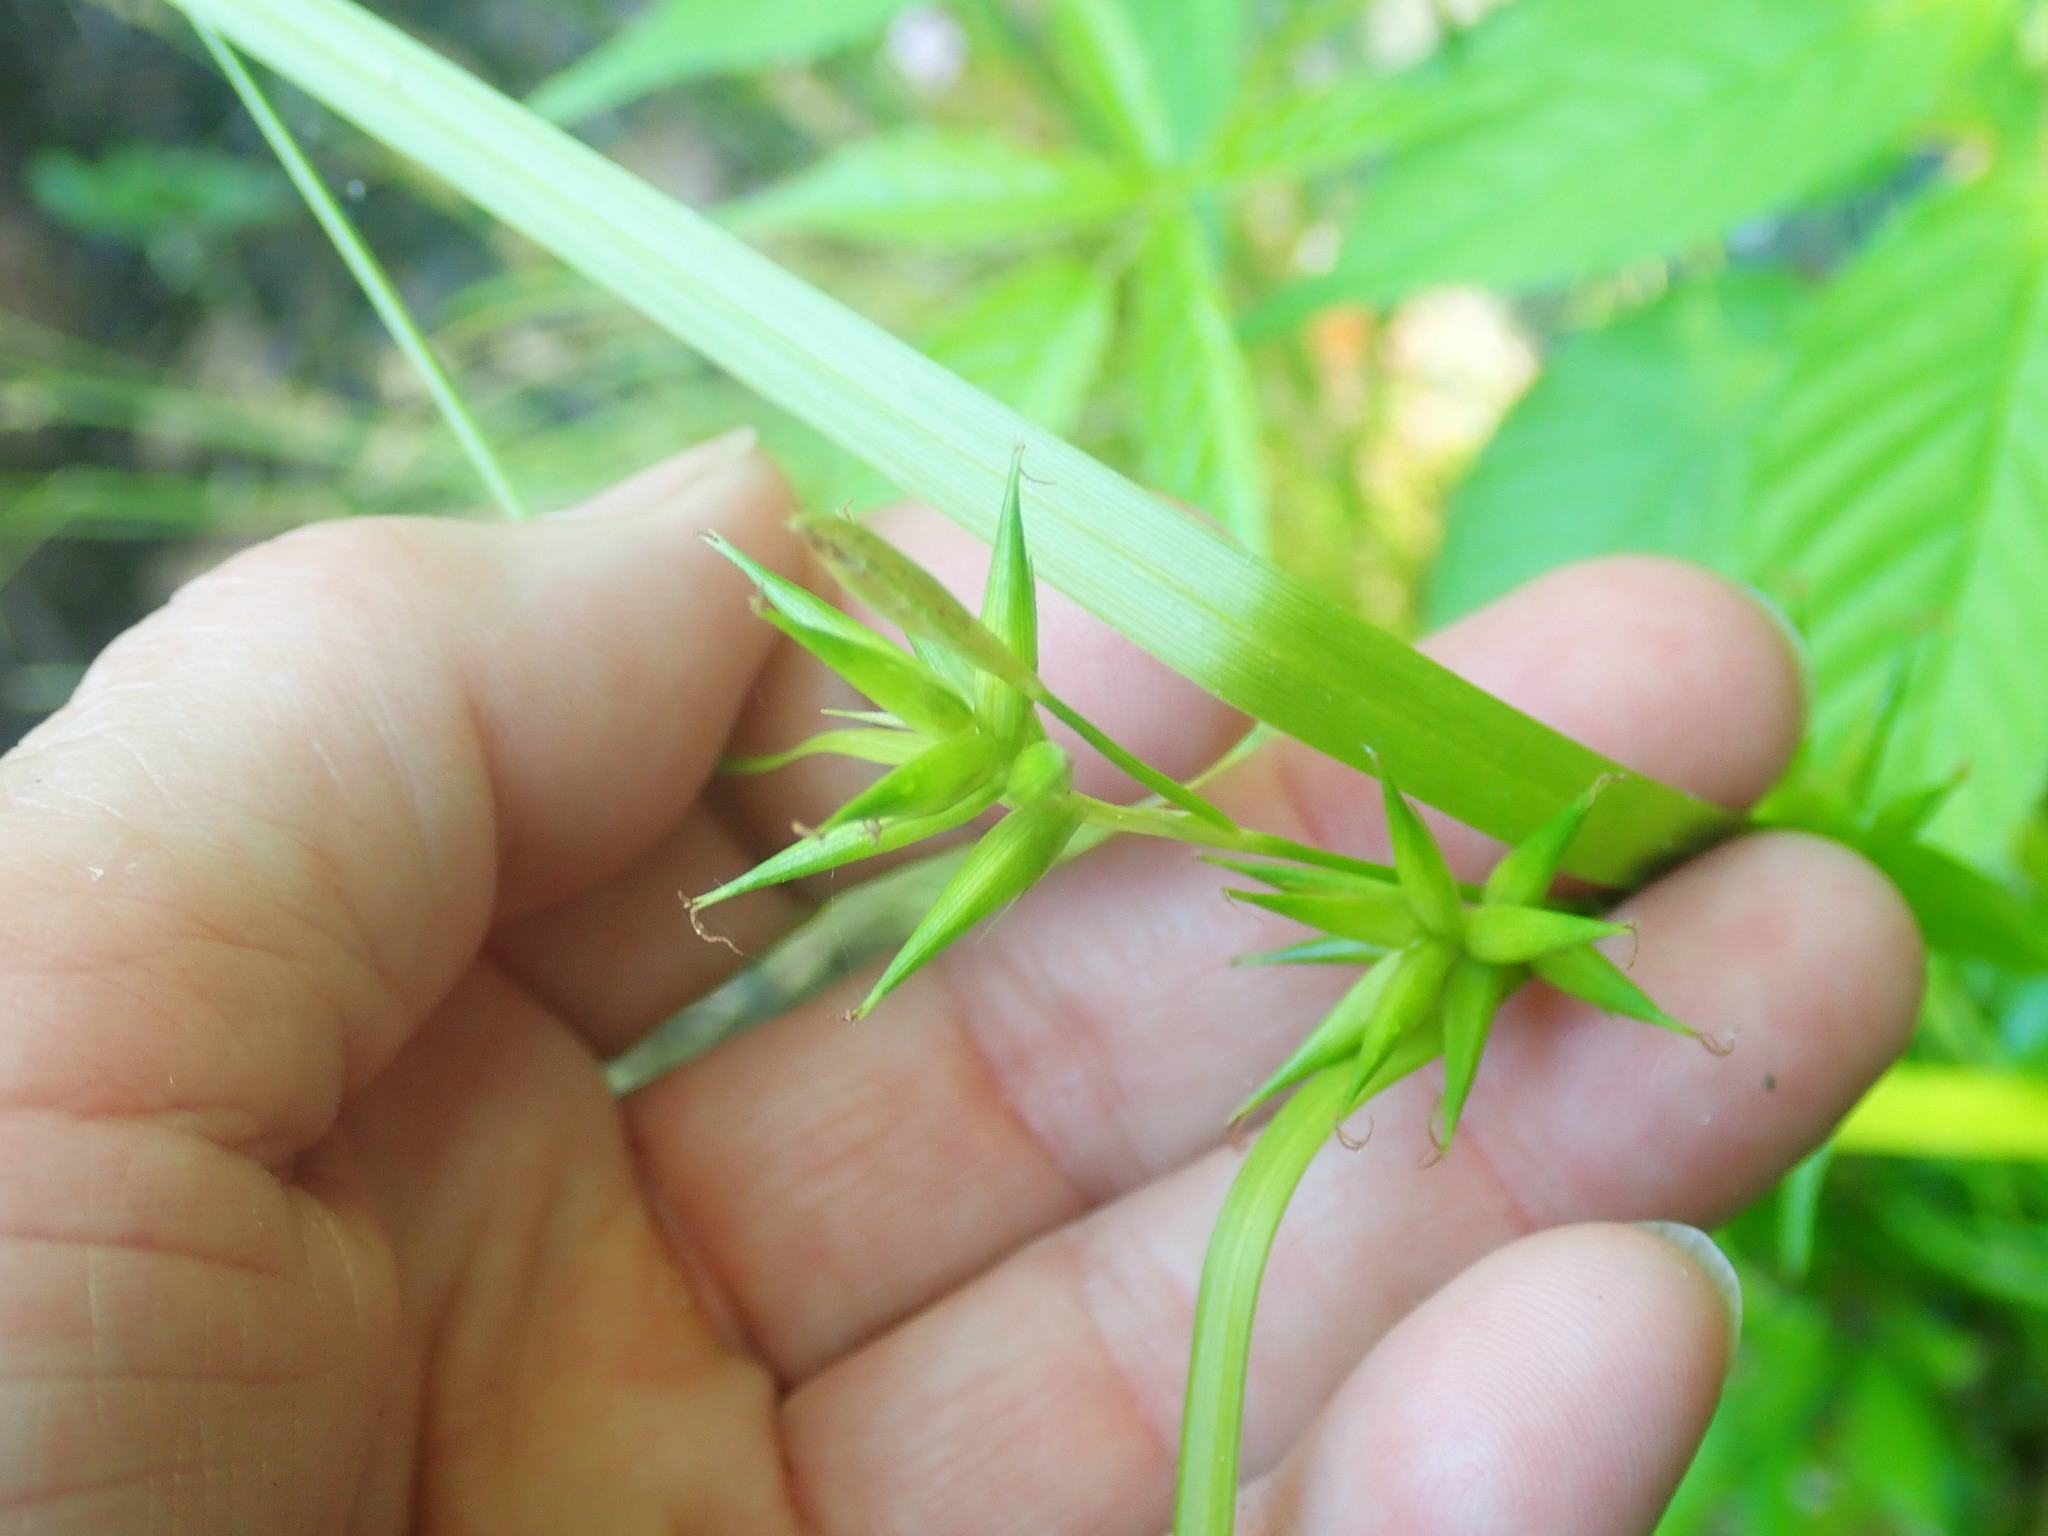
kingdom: Plantae
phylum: Tracheophyta
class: Liliopsida
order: Poales
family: Cyperaceae
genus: Carex
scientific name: Carex folliculata
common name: Northern long sedge
